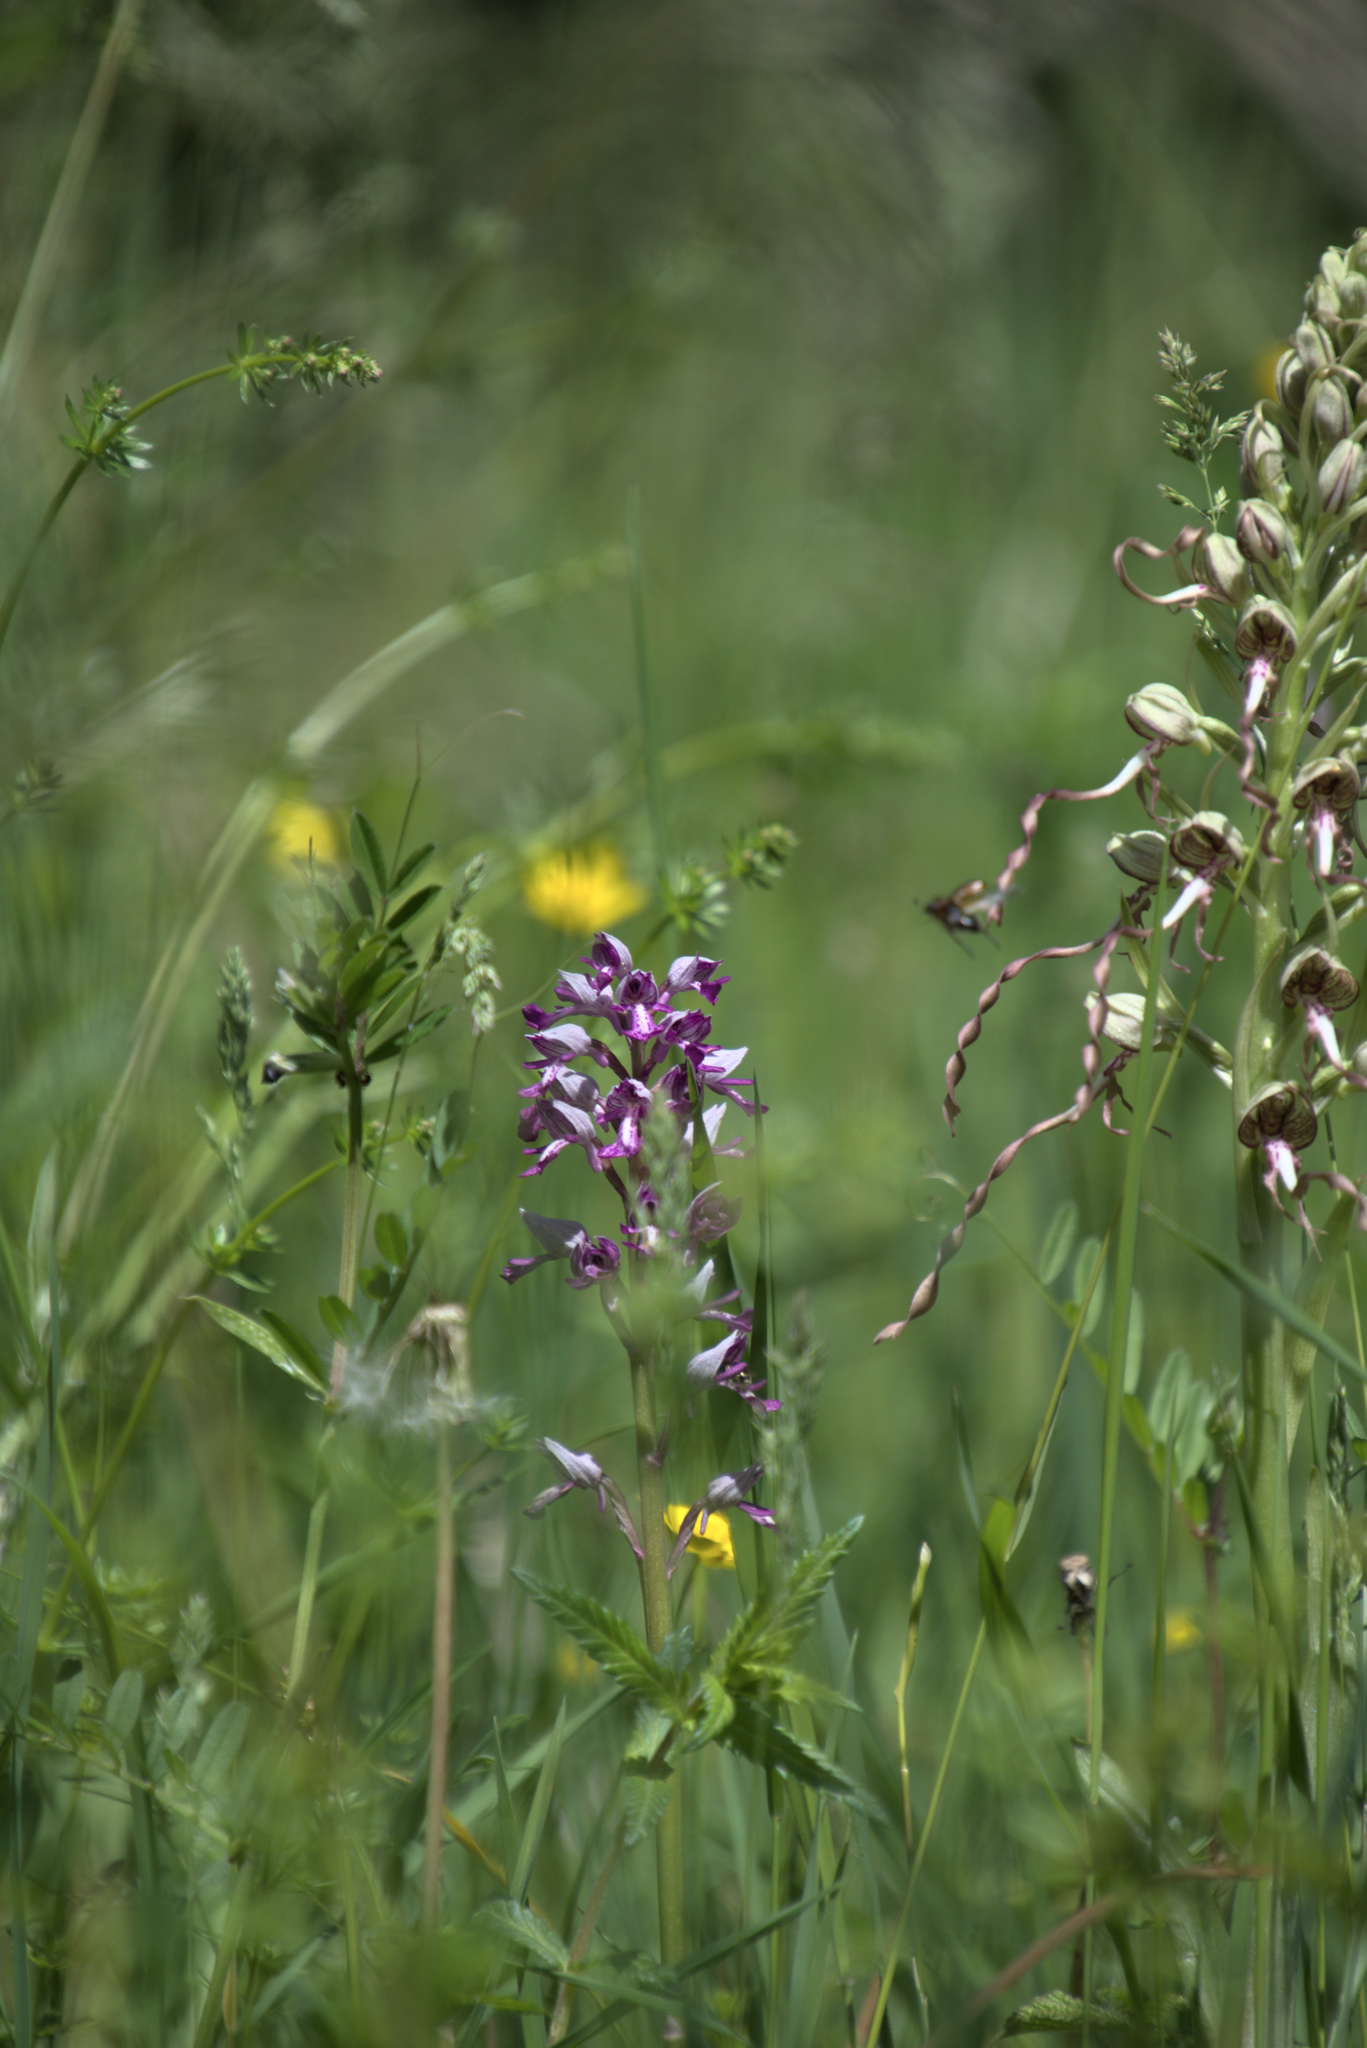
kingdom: Plantae
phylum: Tracheophyta
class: Liliopsida
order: Asparagales
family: Orchidaceae
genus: Orchis
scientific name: Orchis militaris
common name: Military orchid
